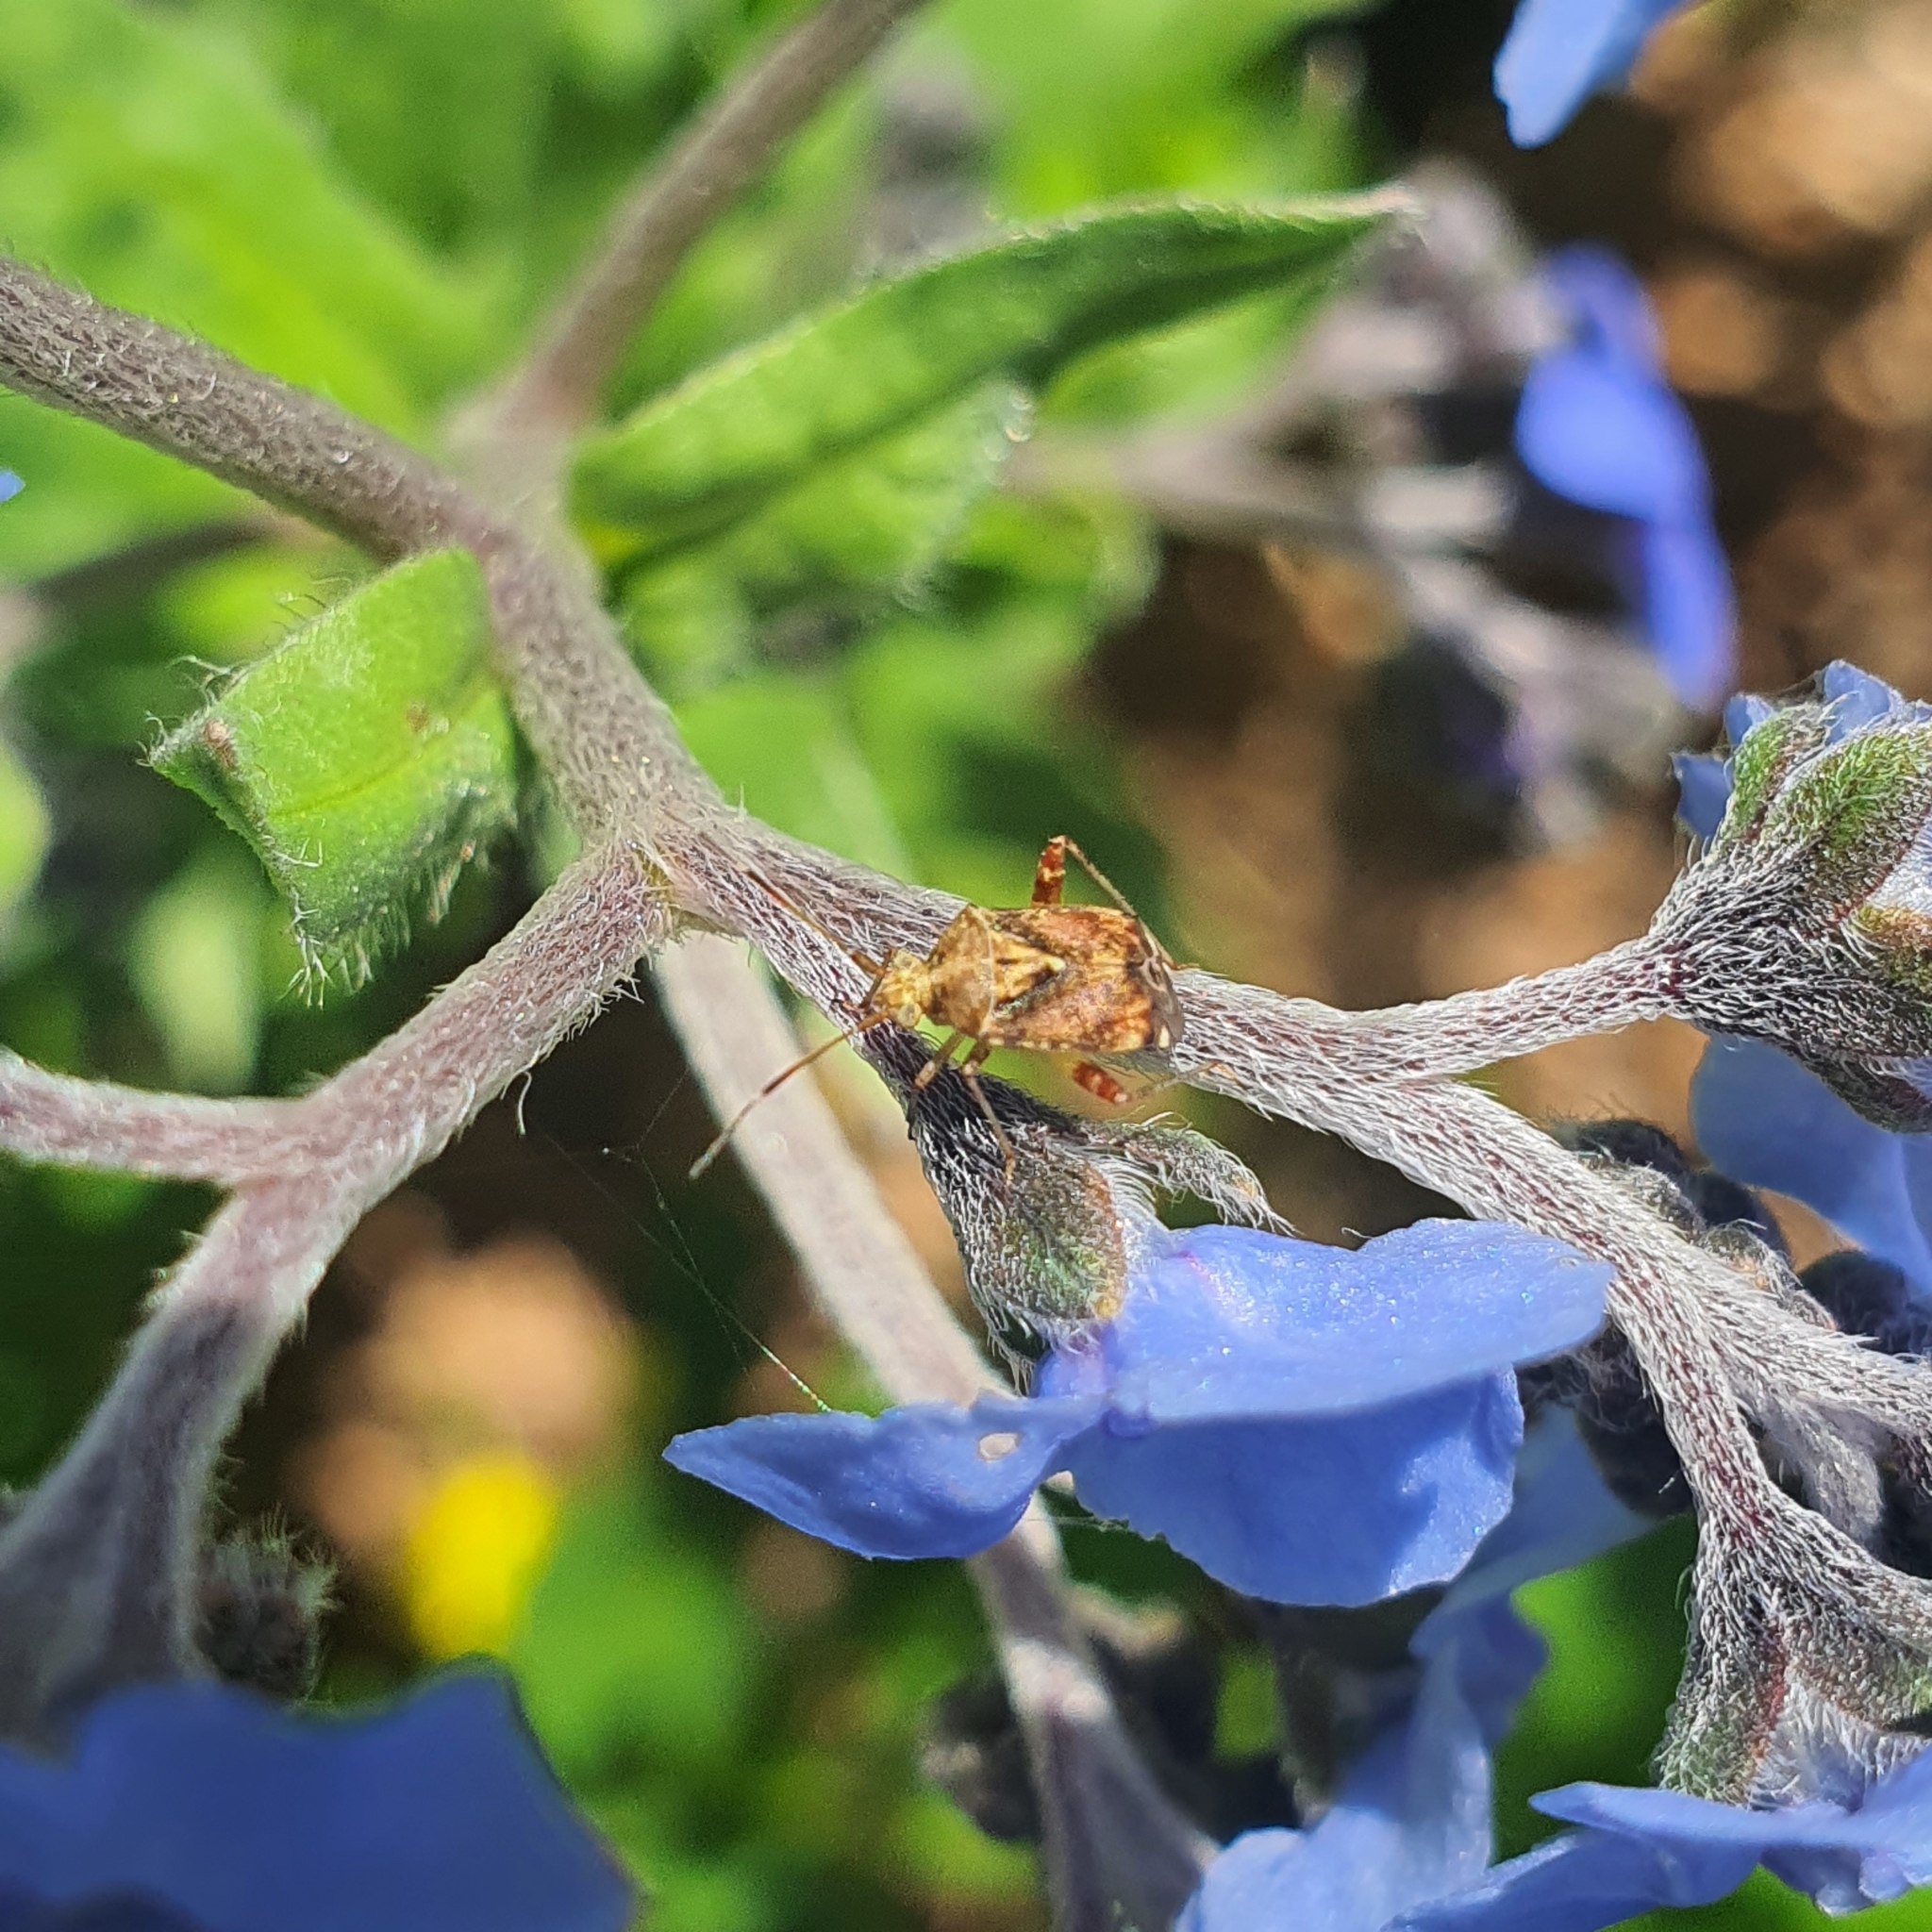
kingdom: Animalia
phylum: Arthropoda
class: Insecta
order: Hemiptera
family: Miridae
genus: Sidnia
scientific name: Sidnia kinbergi
